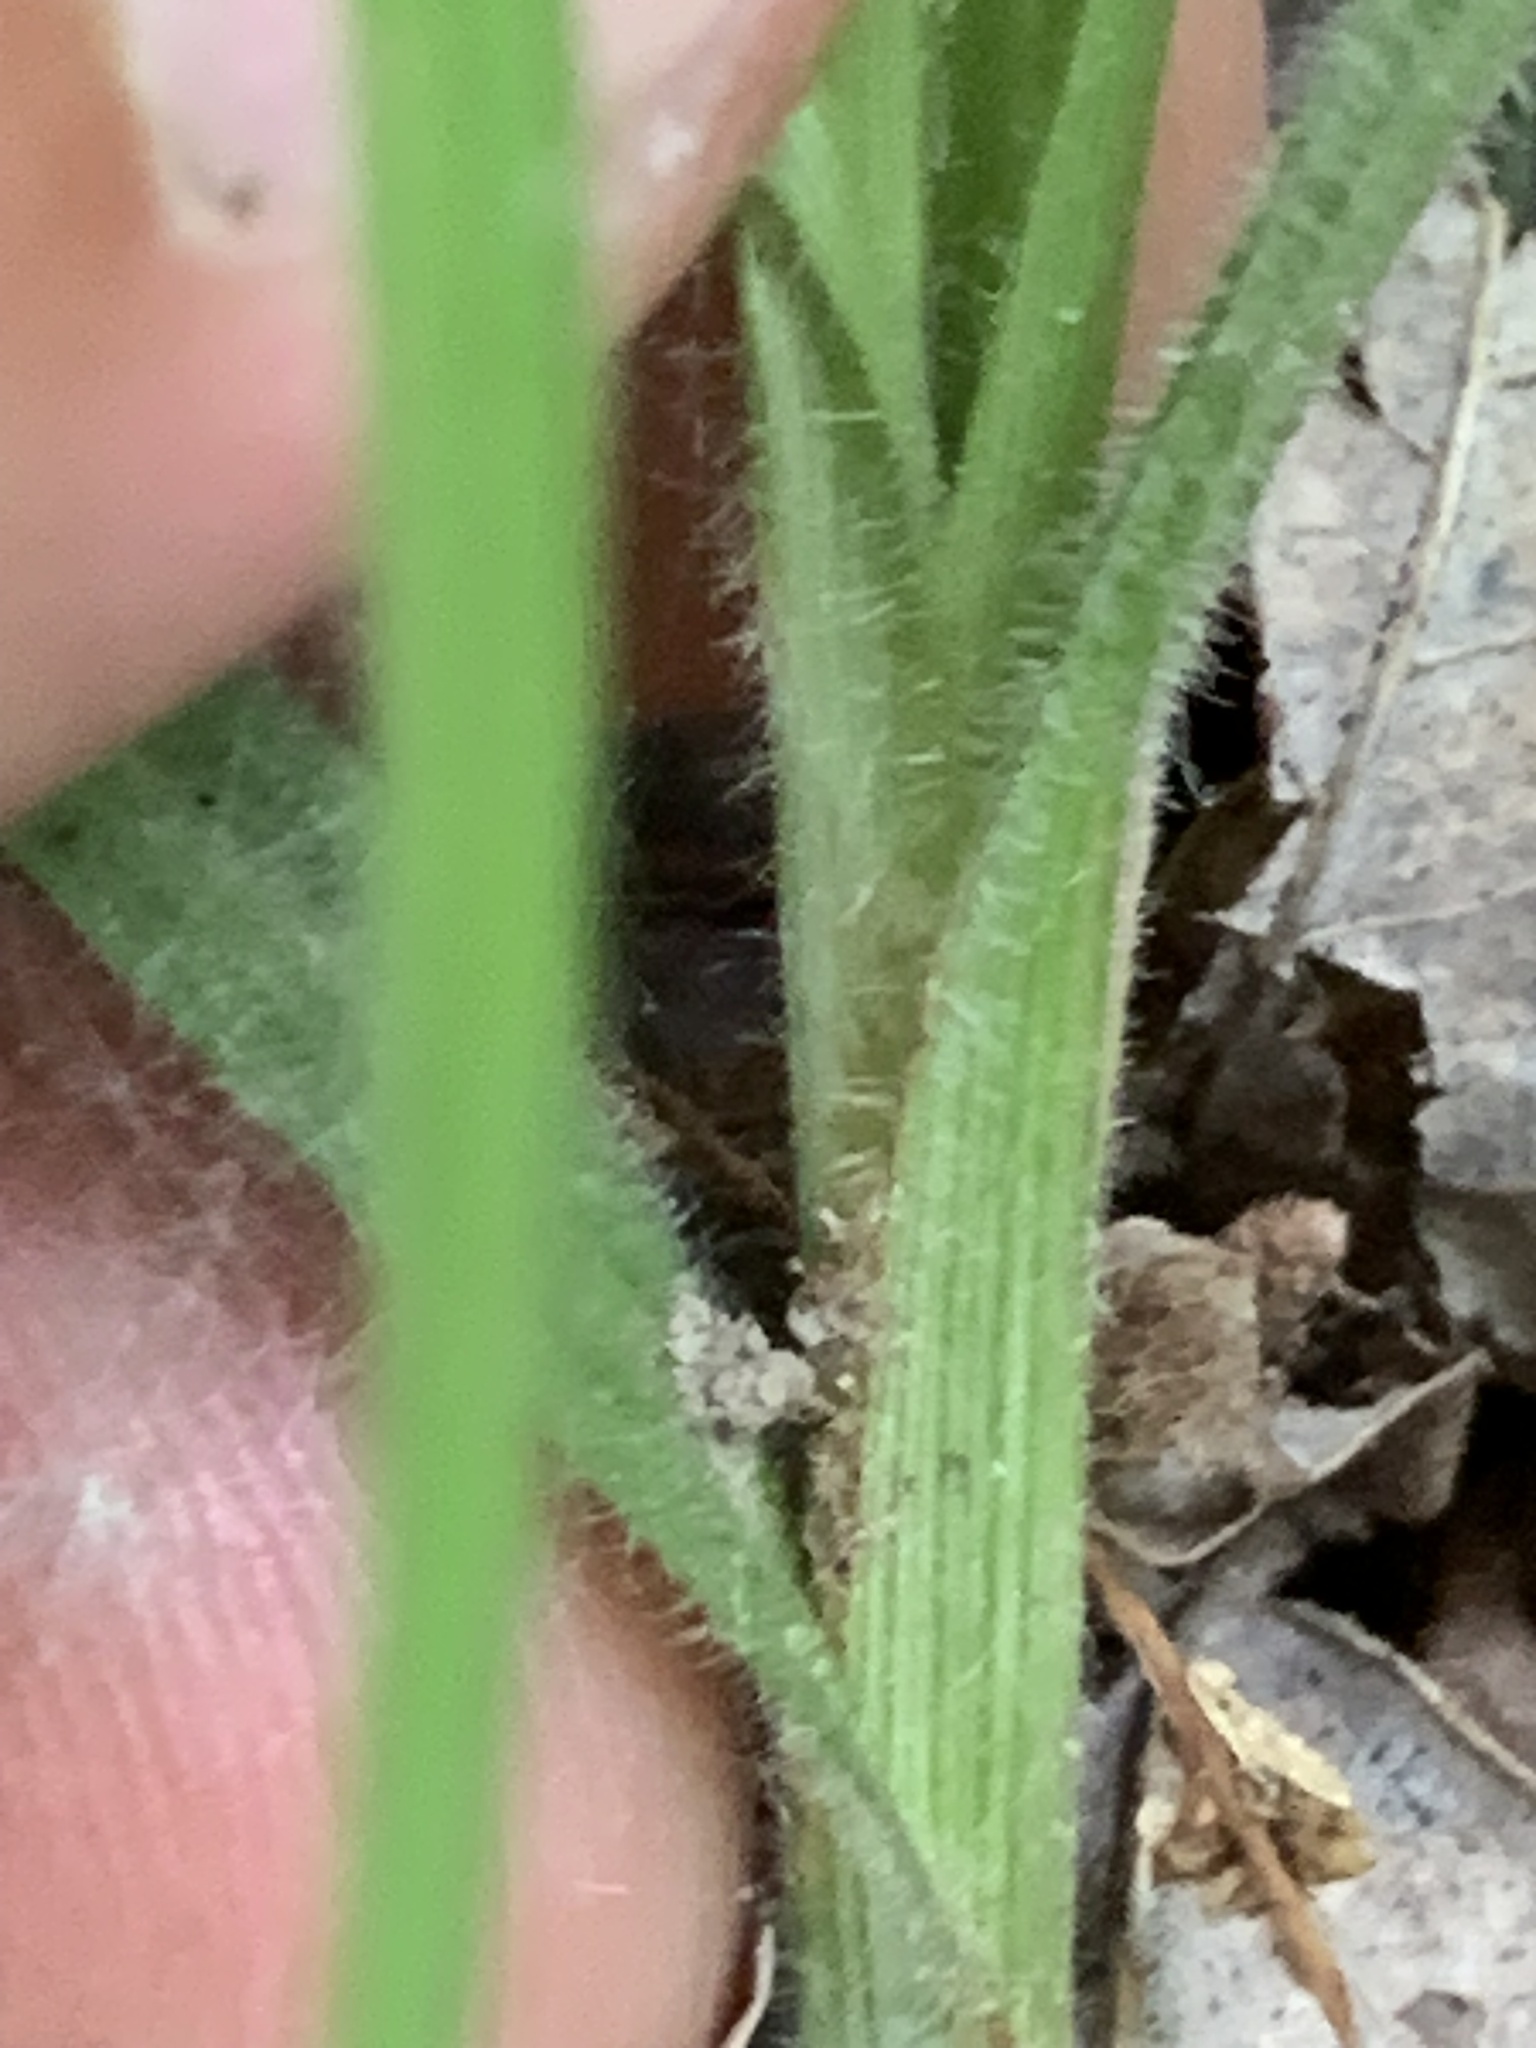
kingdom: Plantae
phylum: Tracheophyta
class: Liliopsida
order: Poales
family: Cyperaceae
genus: Carex
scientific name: Carex hirtifolia
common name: Hairy sedge
